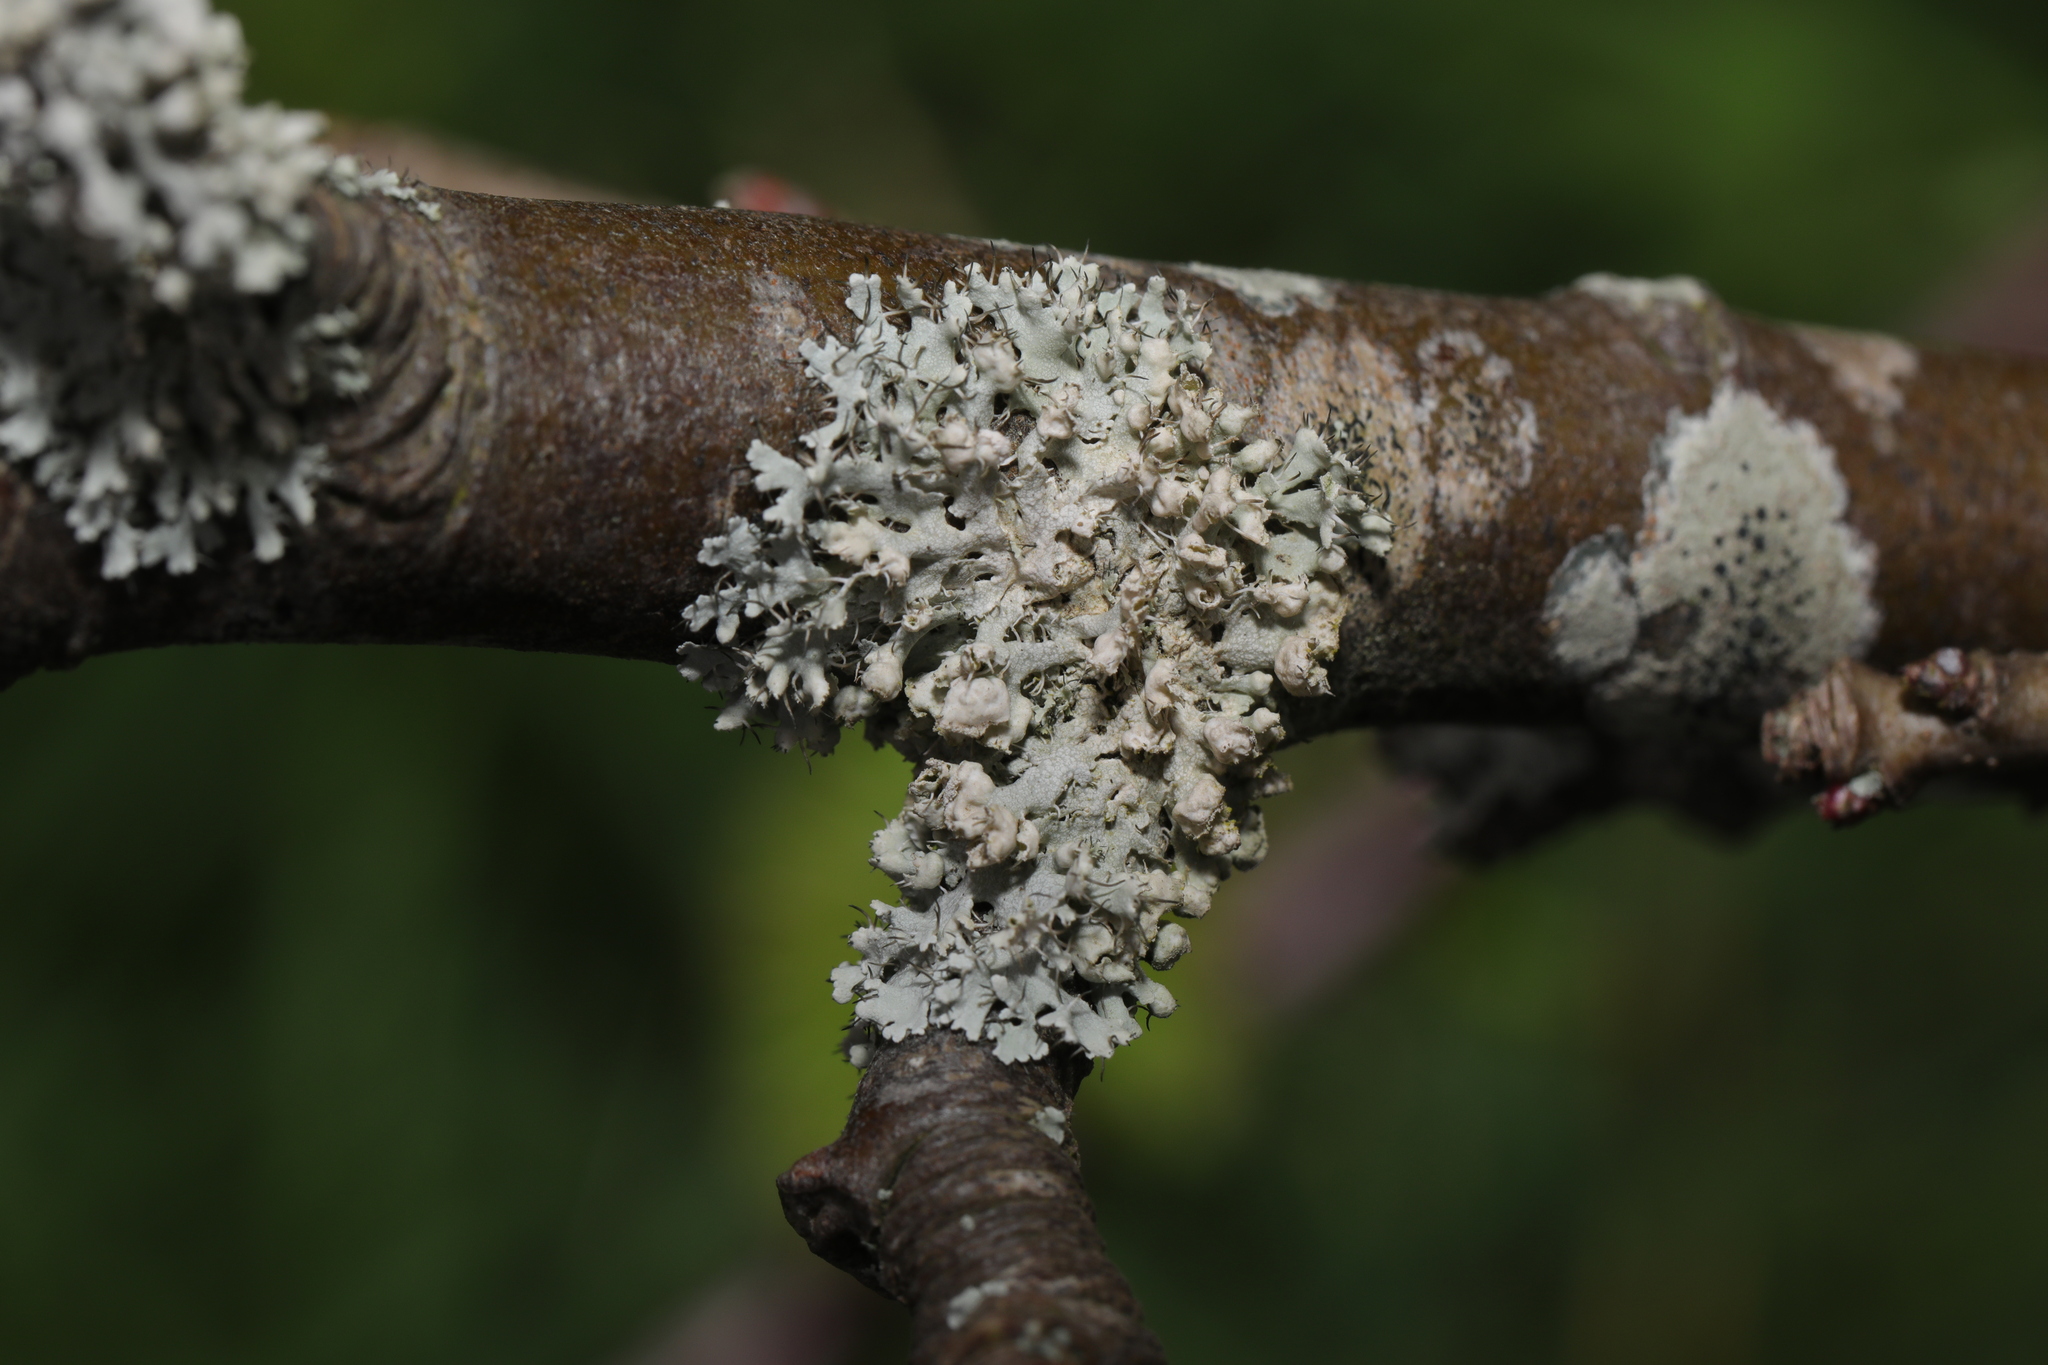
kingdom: Fungi
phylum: Ascomycota
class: Lecanoromycetes
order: Caliciales
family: Physciaceae
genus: Physcia
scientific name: Physcia adscendens
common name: Hooded rosette lichen
